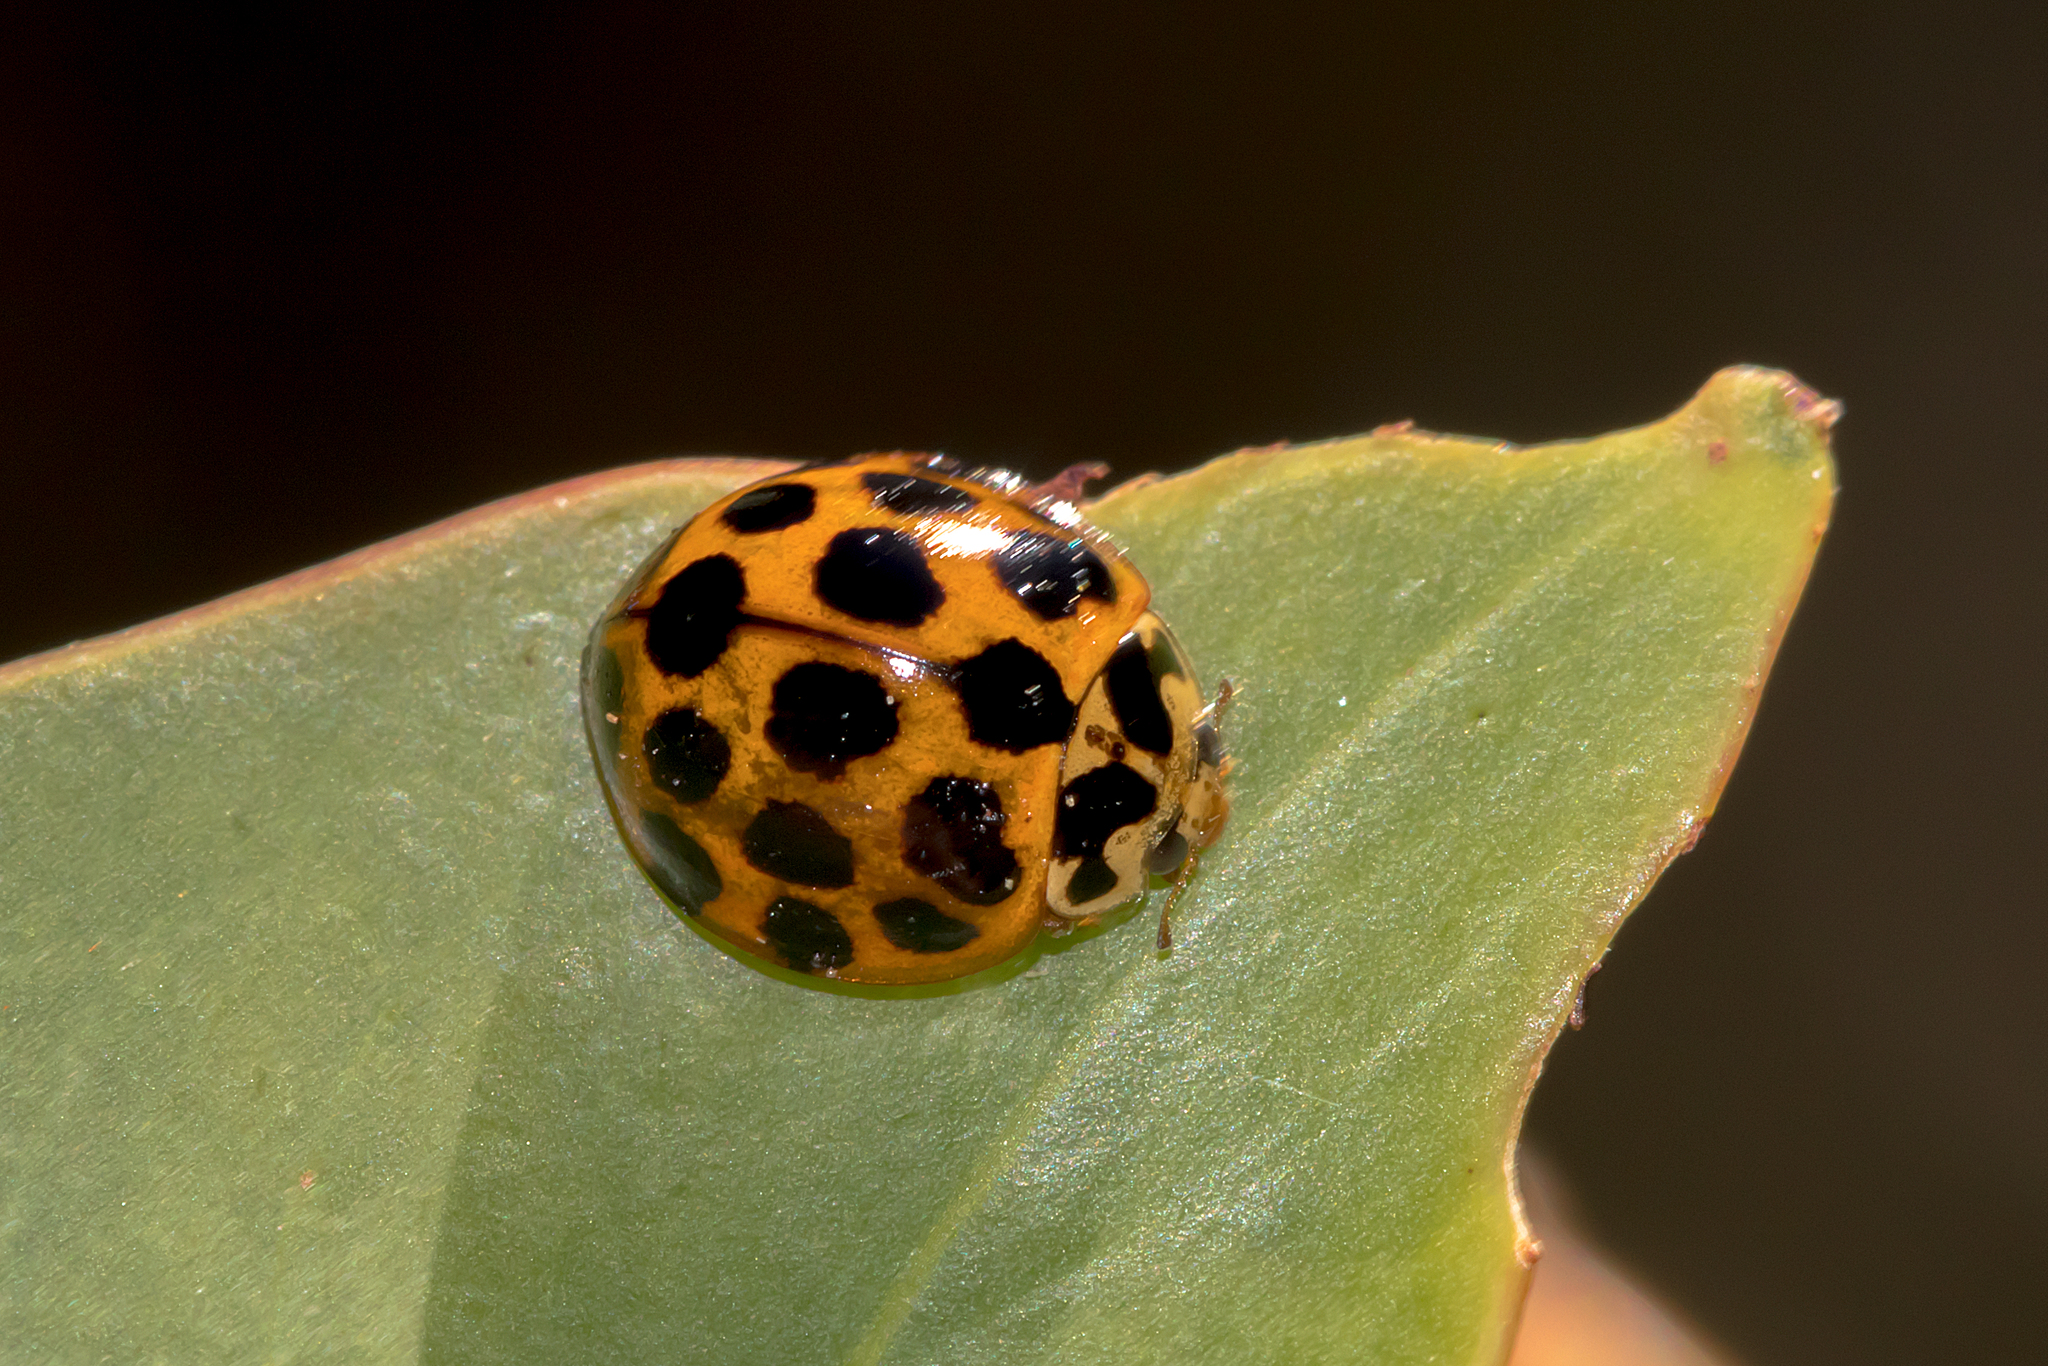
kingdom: Animalia
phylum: Arthropoda
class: Insecta
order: Coleoptera
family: Coccinellidae
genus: Harmonia
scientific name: Harmonia conformis
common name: Common spotted ladybird beetle
